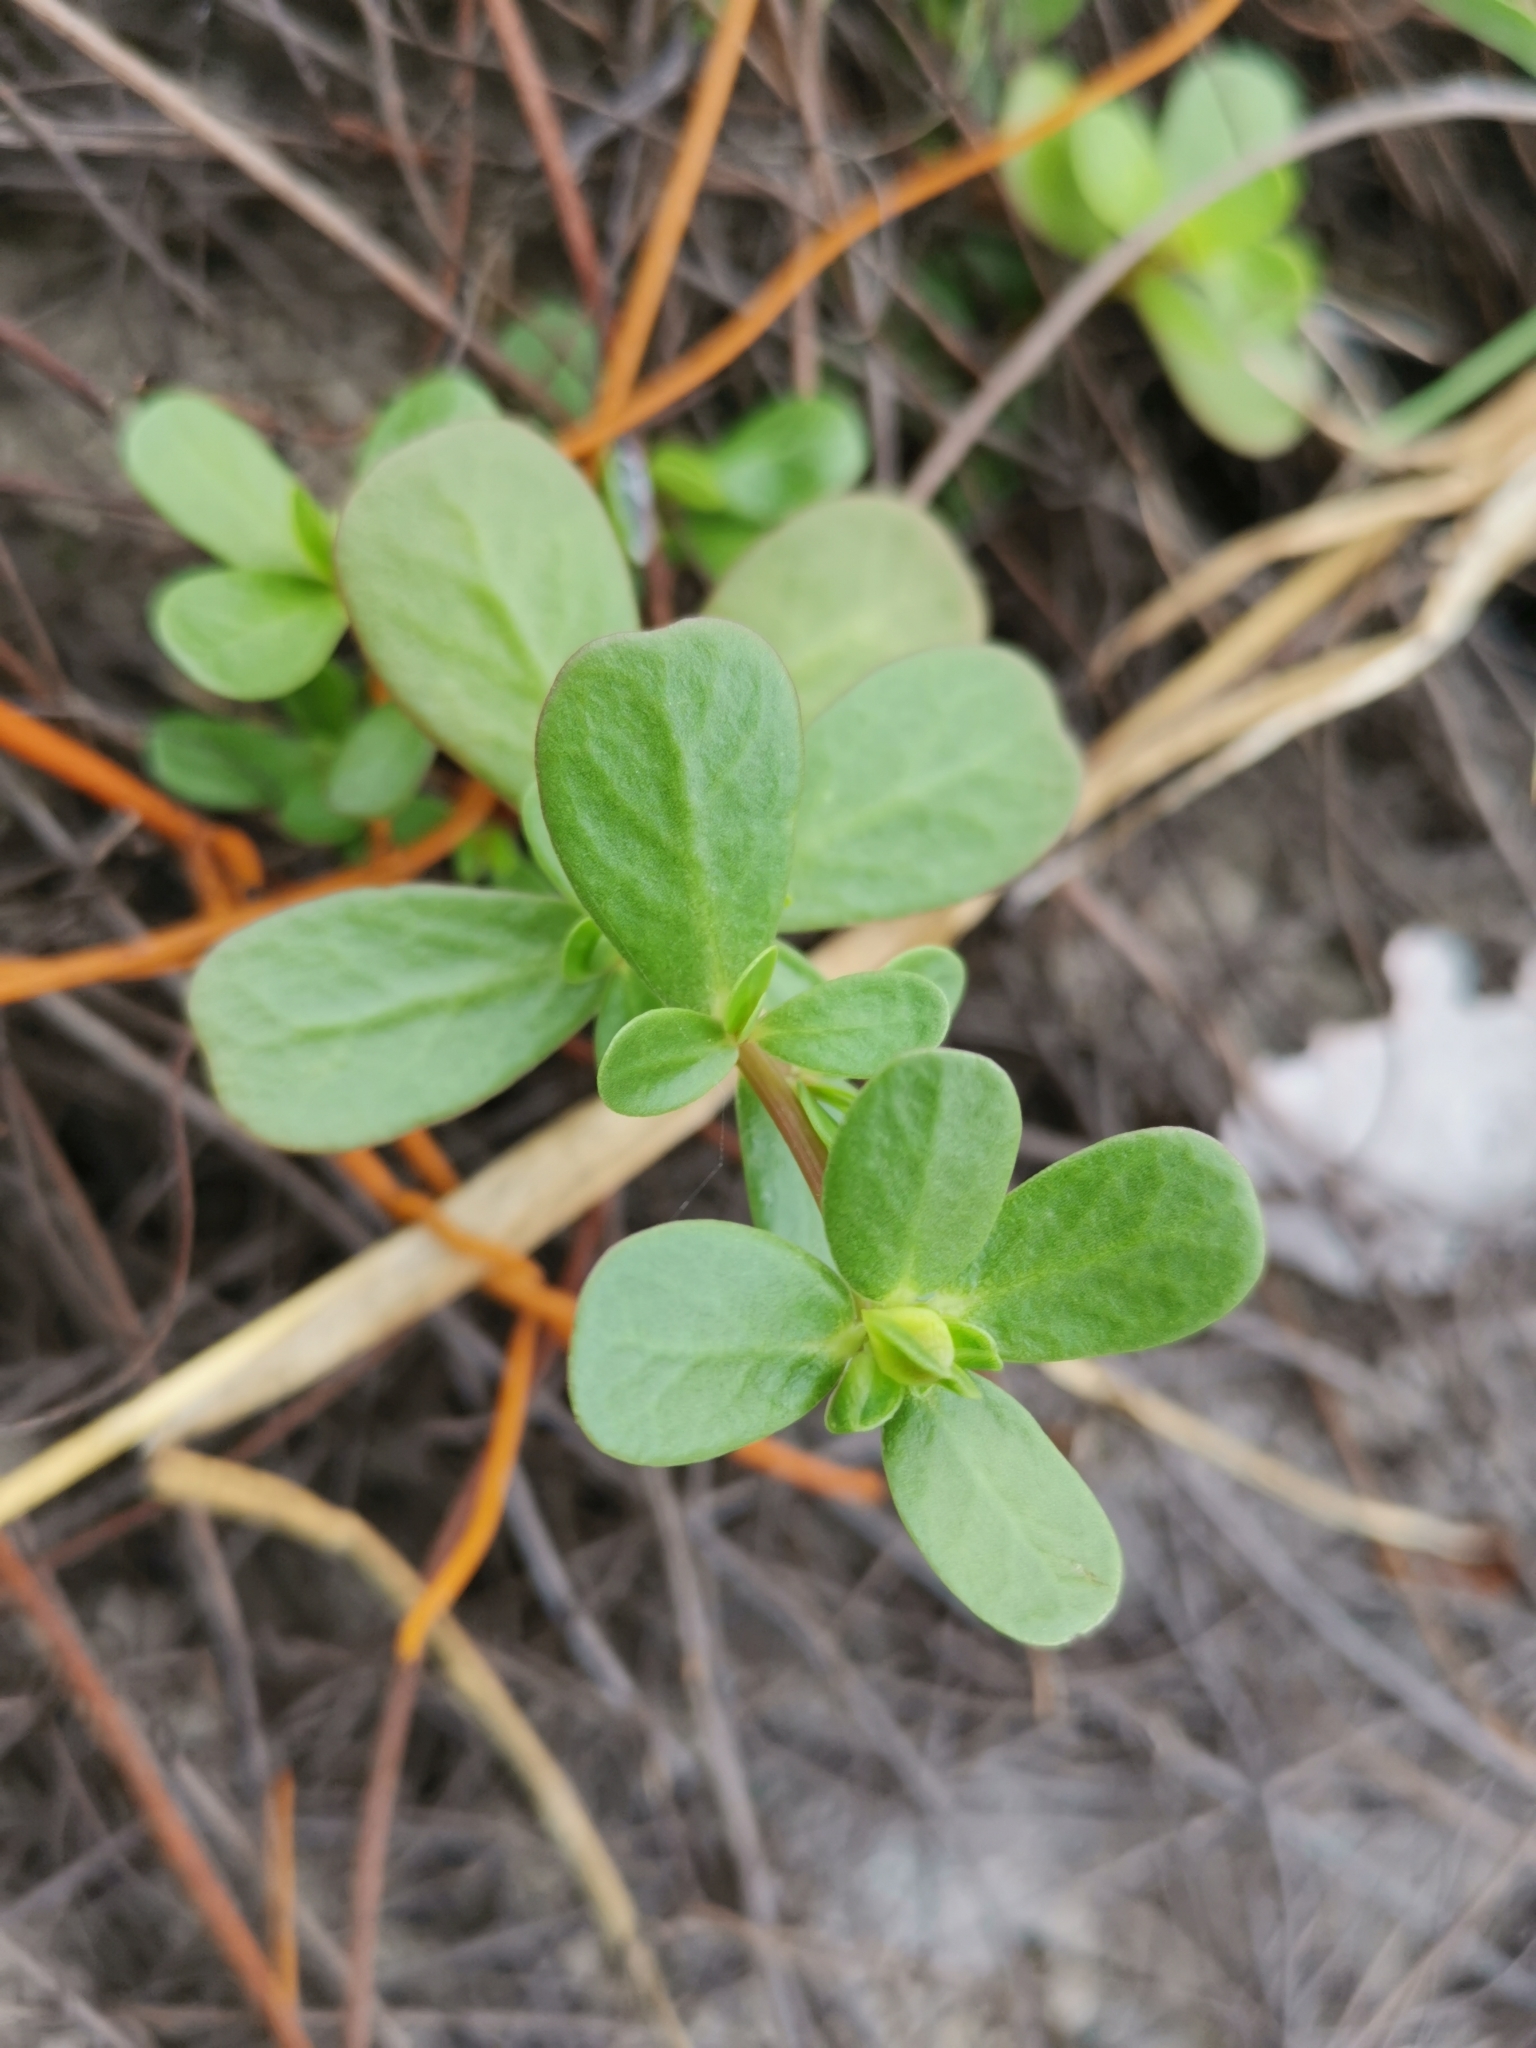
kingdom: Plantae
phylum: Tracheophyta
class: Magnoliopsida
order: Caryophyllales
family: Portulacaceae
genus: Portulaca
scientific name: Portulaca oleracea
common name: Common purslane
